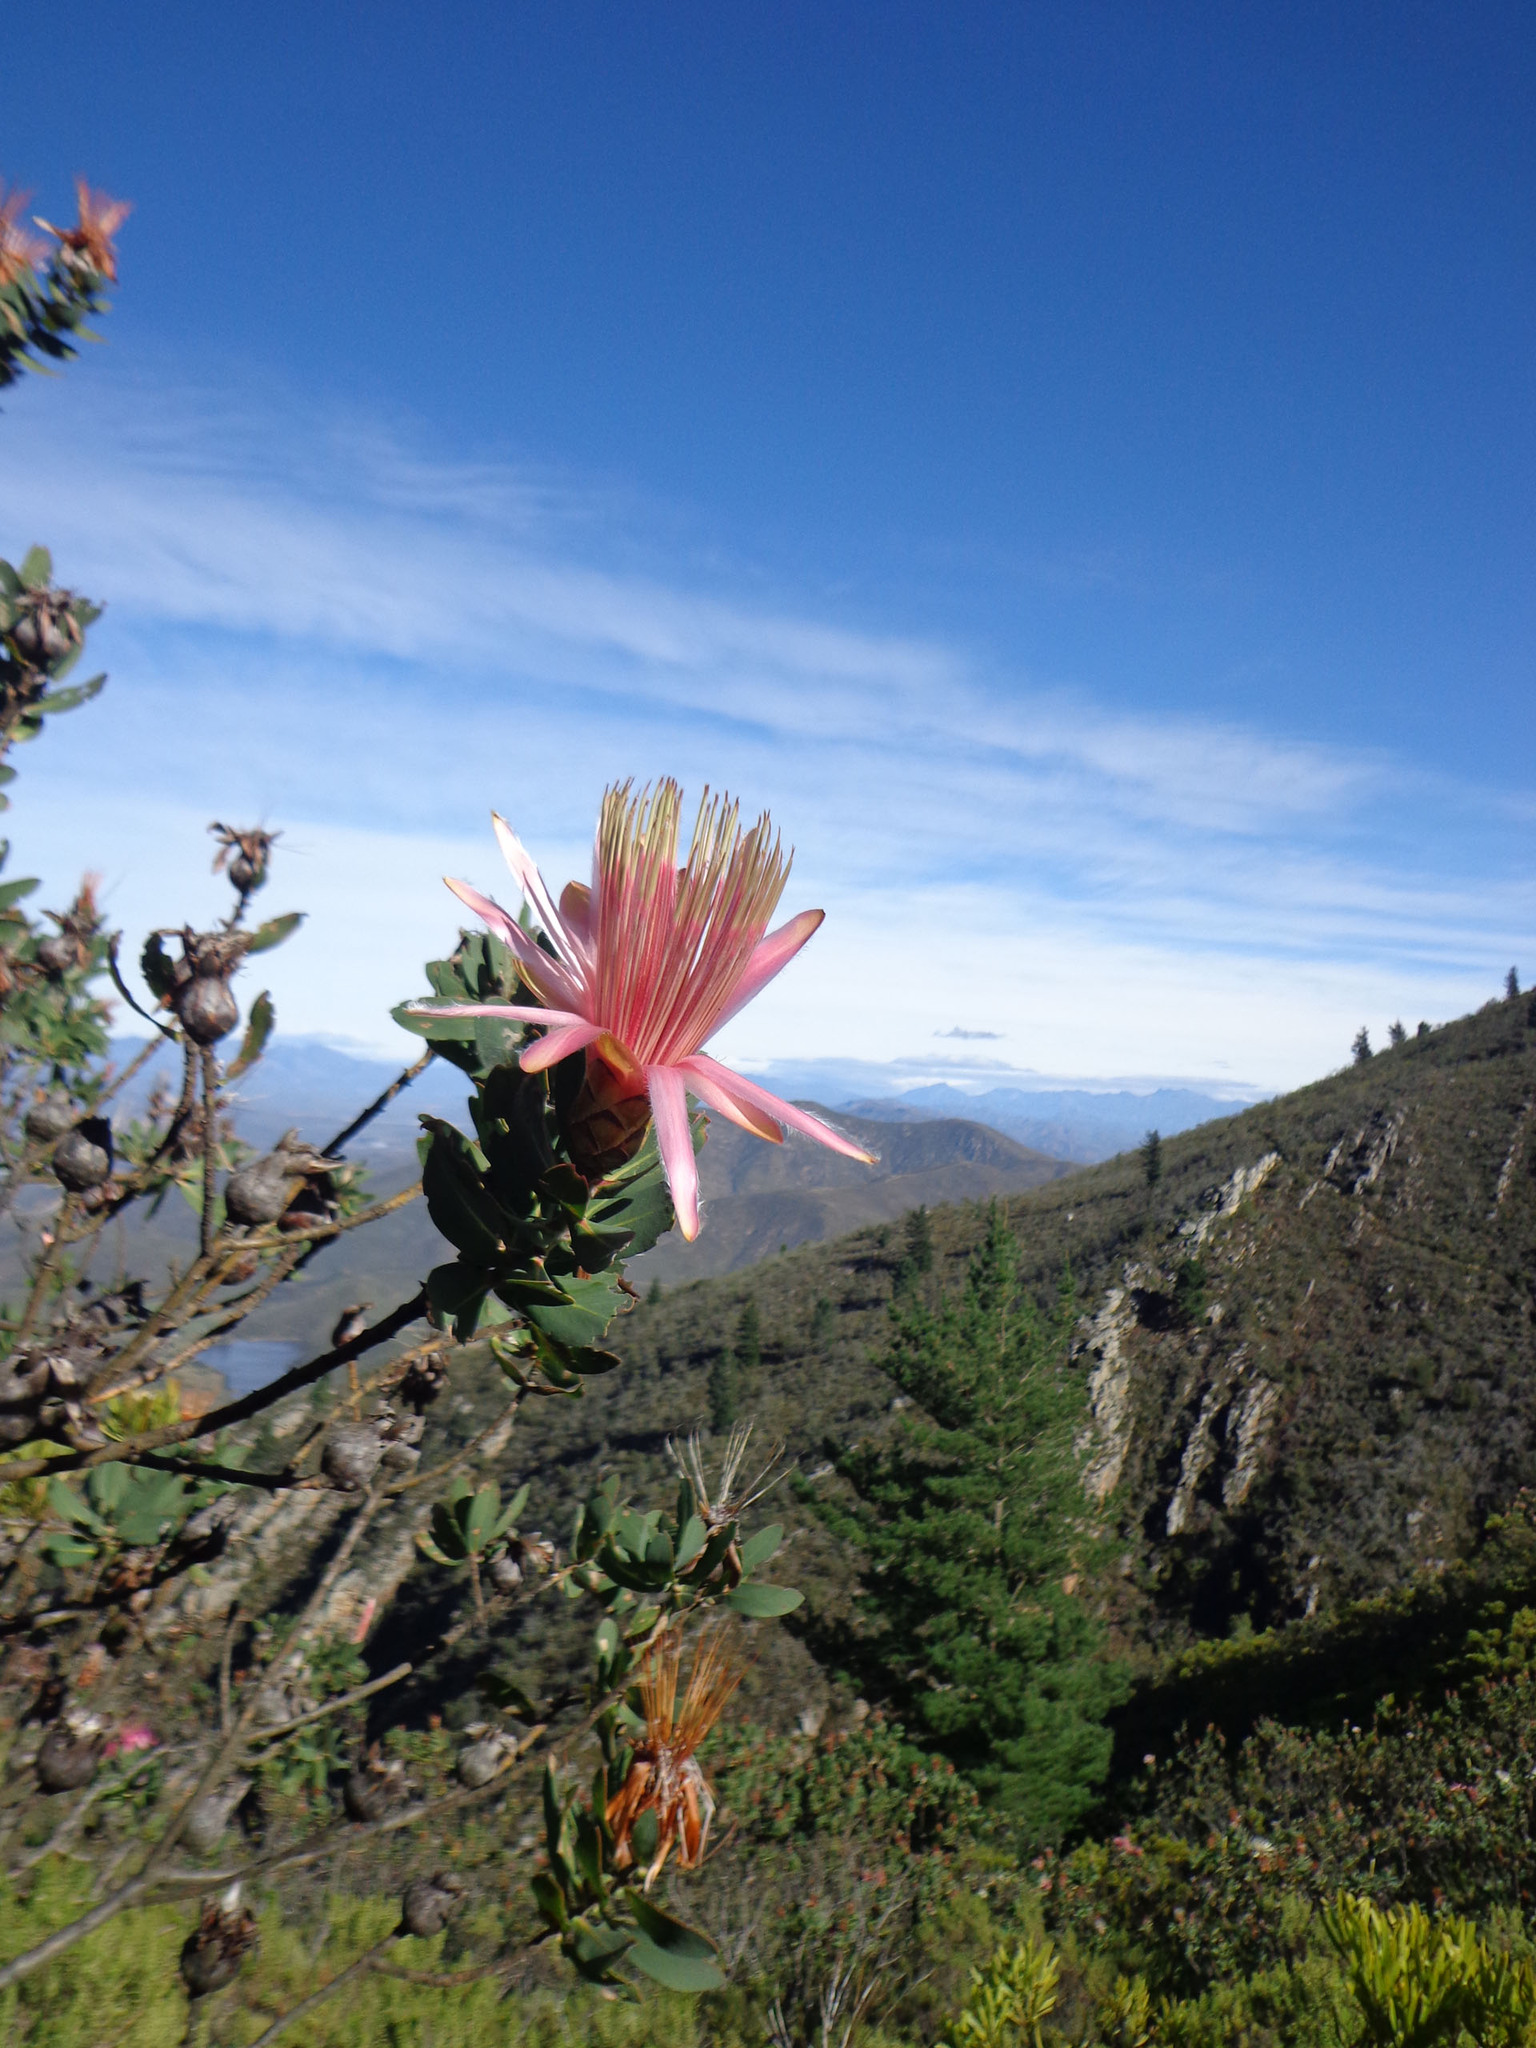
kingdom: Plantae
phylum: Tracheophyta
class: Magnoliopsida
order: Proteales
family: Proteaceae
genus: Protea
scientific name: Protea aurea
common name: Shuttlecock sugarbush
